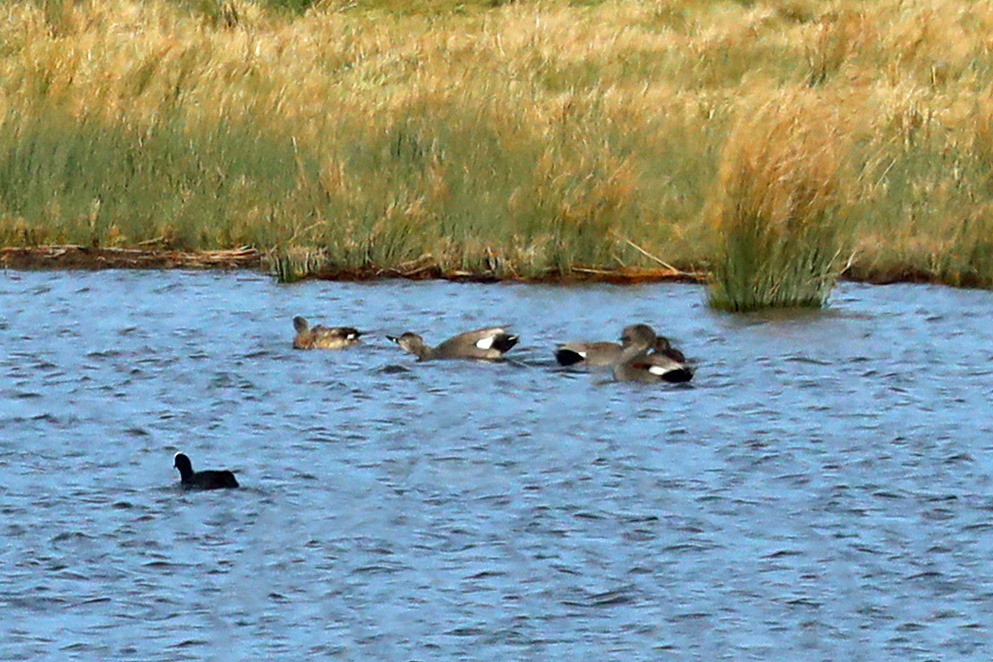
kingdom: Animalia
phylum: Chordata
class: Aves
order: Anseriformes
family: Anatidae
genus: Mareca
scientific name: Mareca strepera
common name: Gadwall
